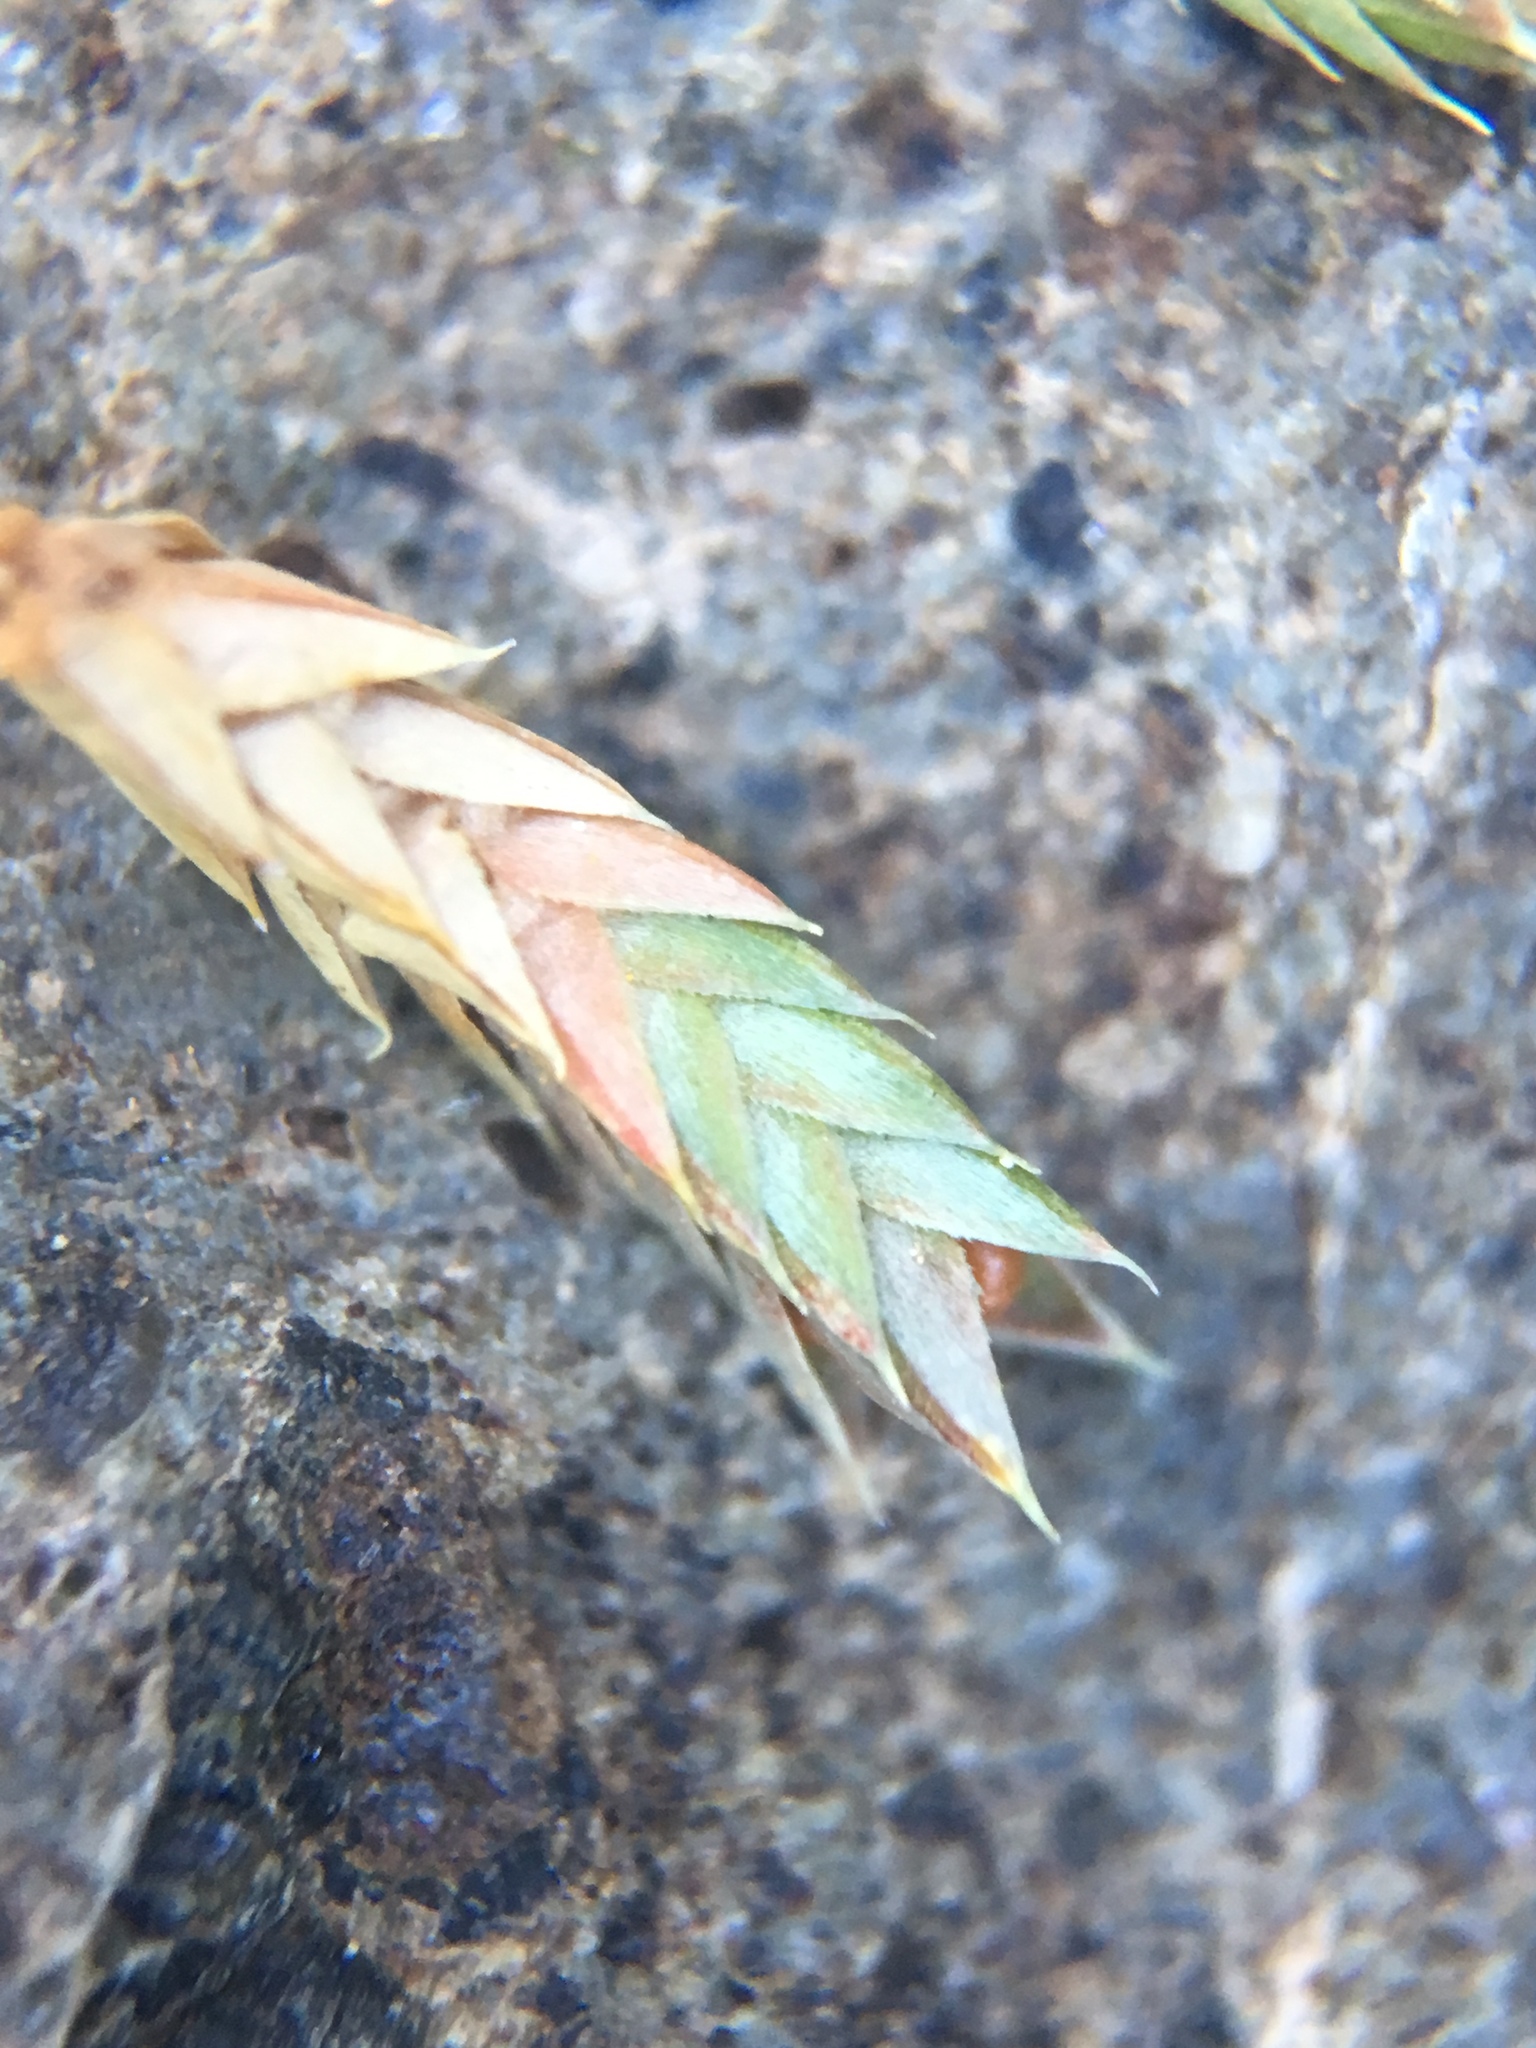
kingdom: Plantae
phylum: Tracheophyta
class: Lycopodiopsida
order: Selaginellales
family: Selaginellaceae
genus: Selaginella
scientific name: Selaginella densa
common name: Mountain spike-moss
